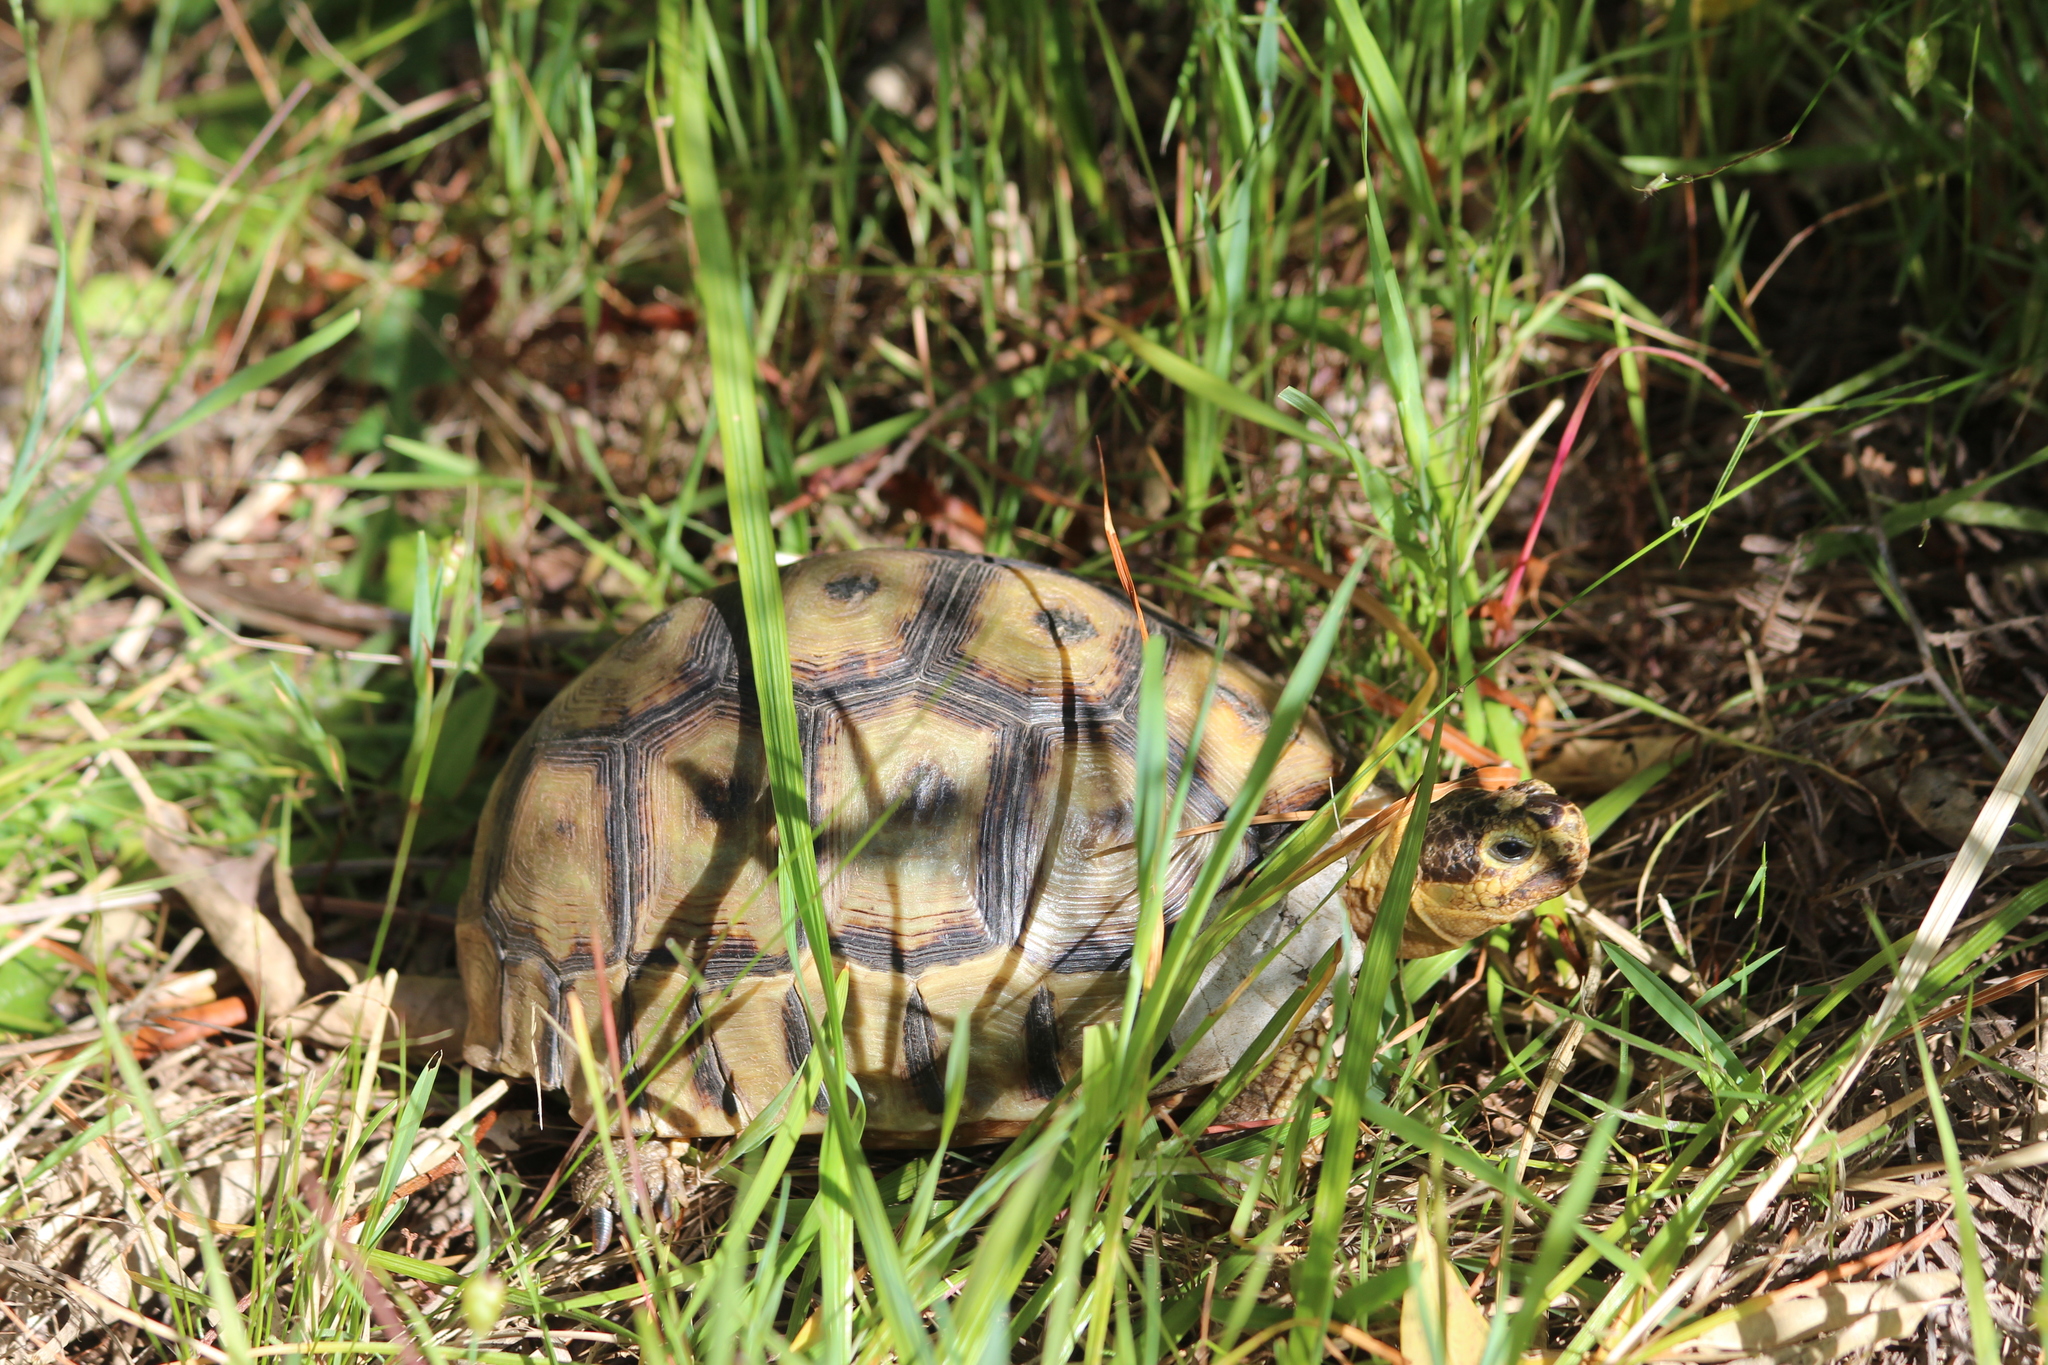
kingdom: Animalia
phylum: Chordata
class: Testudines
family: Testudinidae
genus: Chersina
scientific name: Chersina angulata
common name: South african bowsprit tortoise
